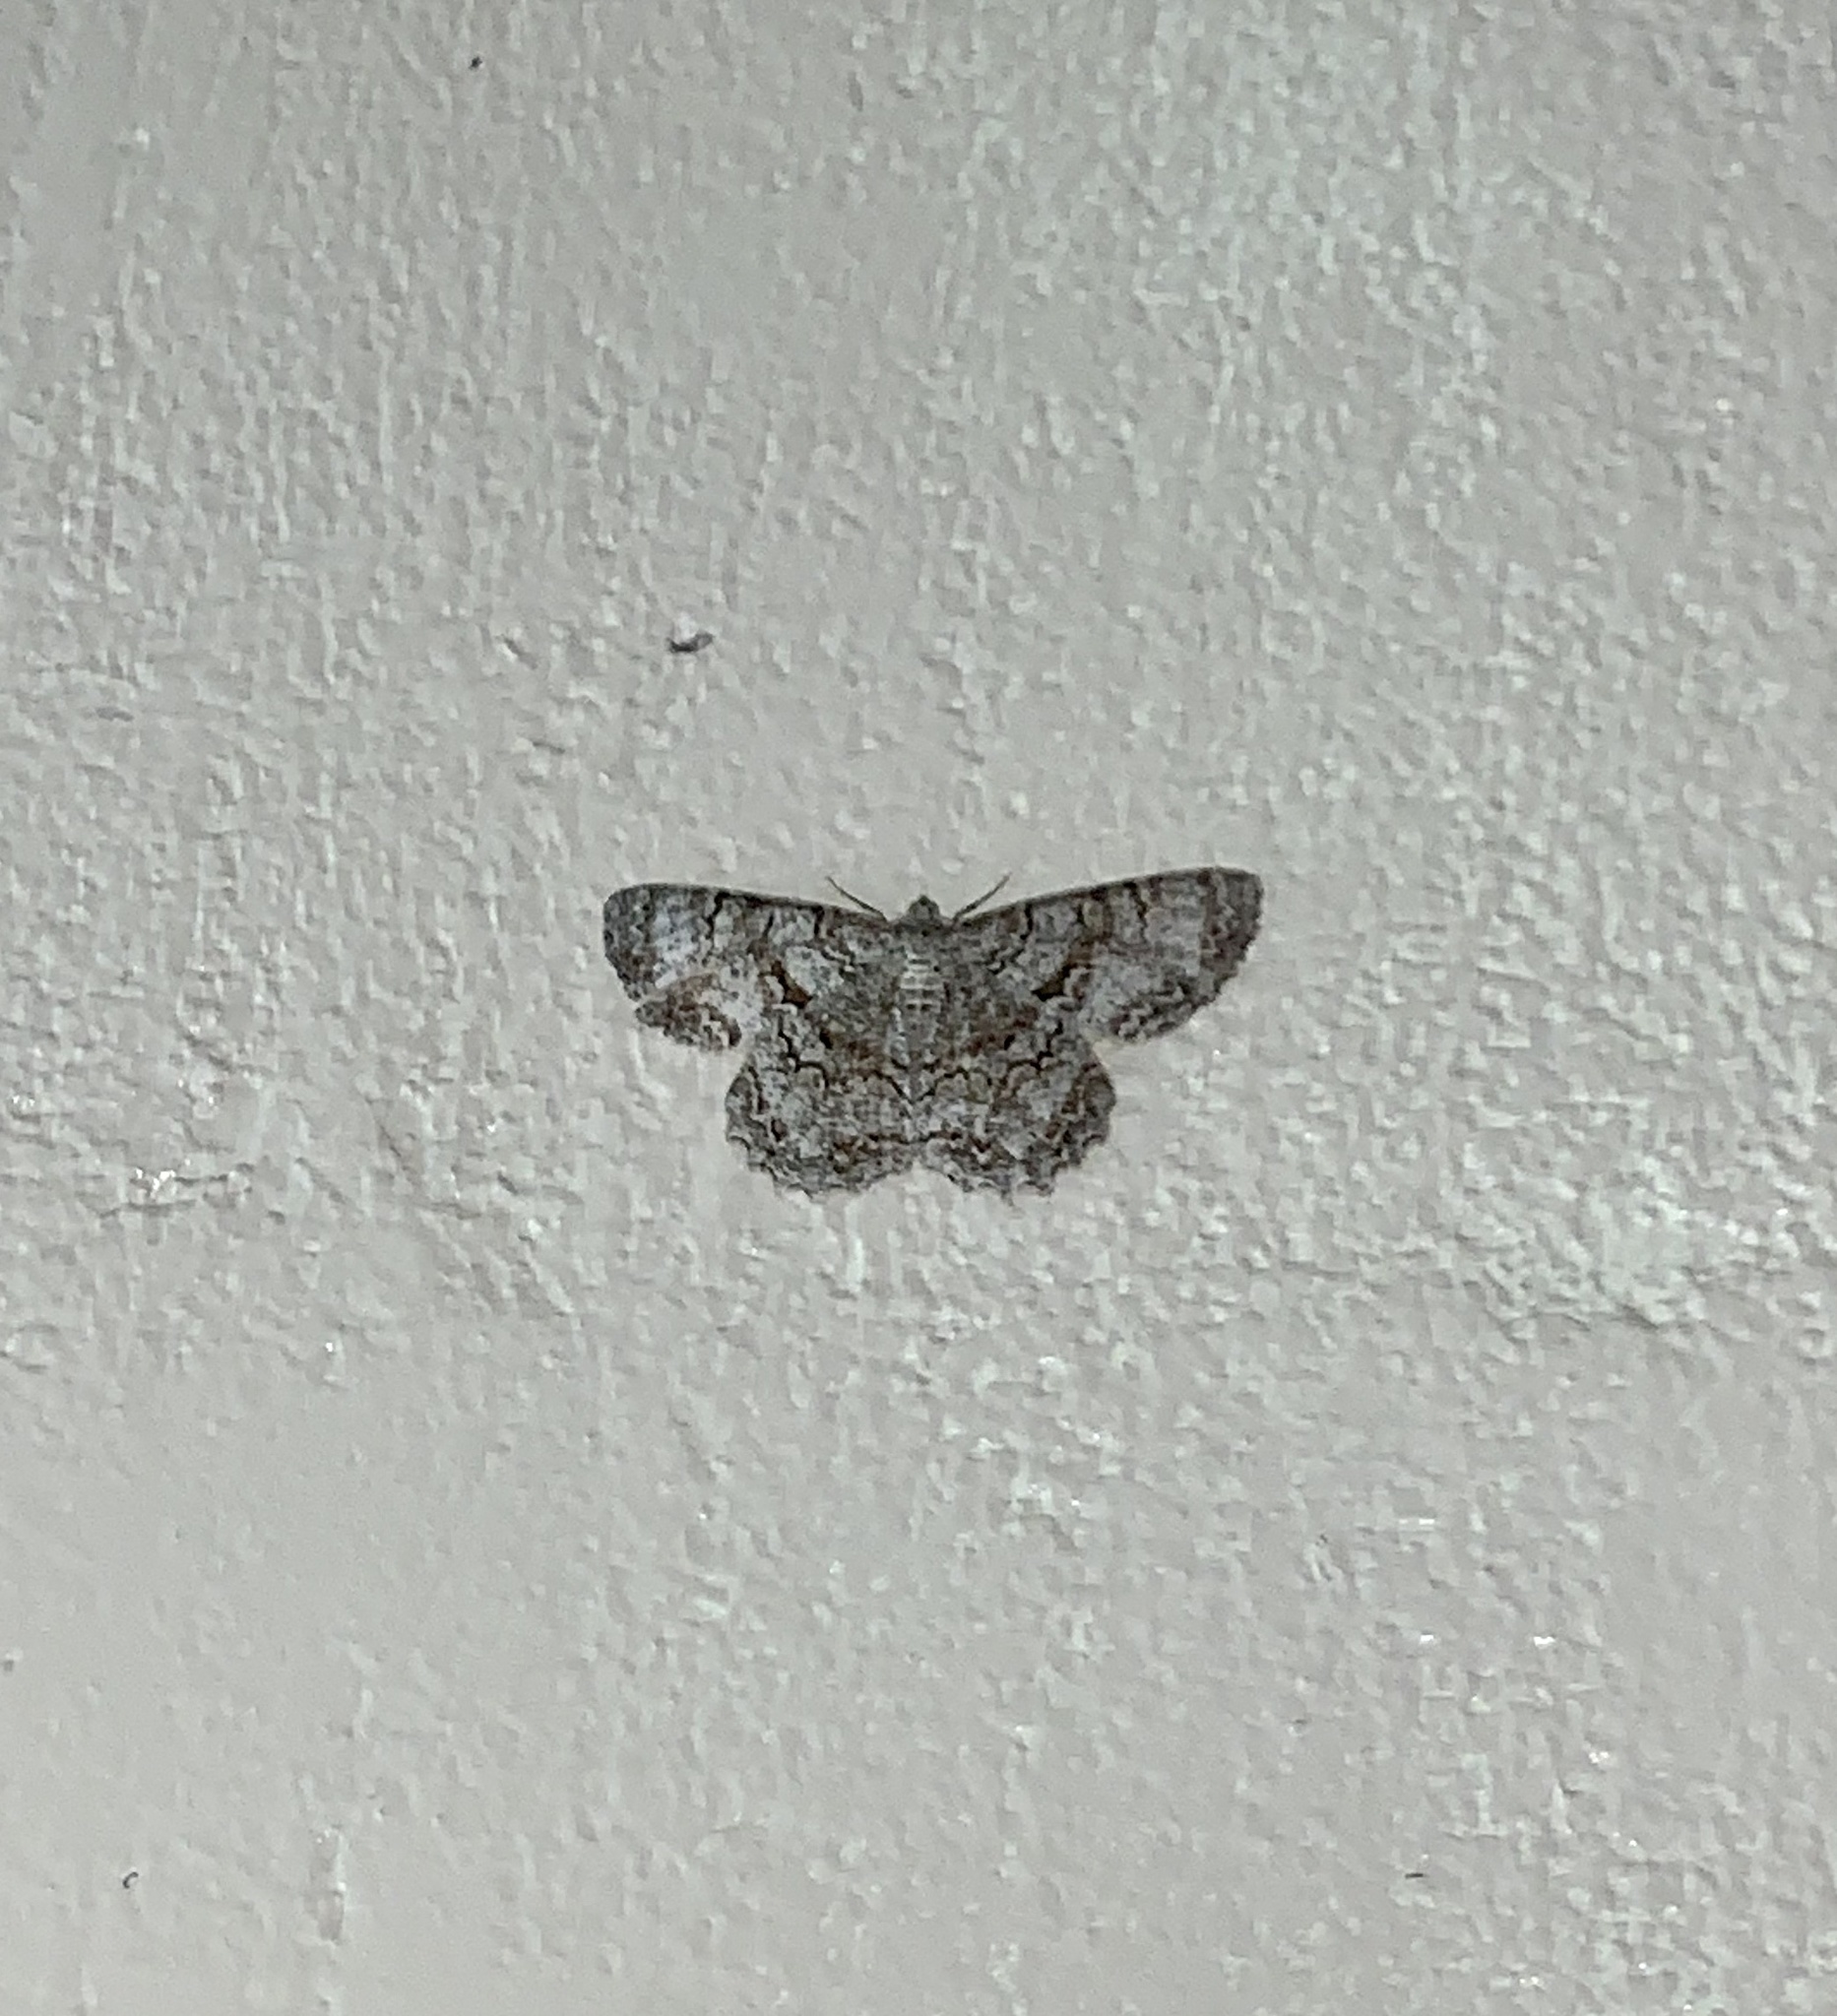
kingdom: Animalia
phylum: Arthropoda
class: Insecta
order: Lepidoptera
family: Geometridae
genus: Epimecis
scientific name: Epimecis hortaria
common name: Tulip-tree beauty
